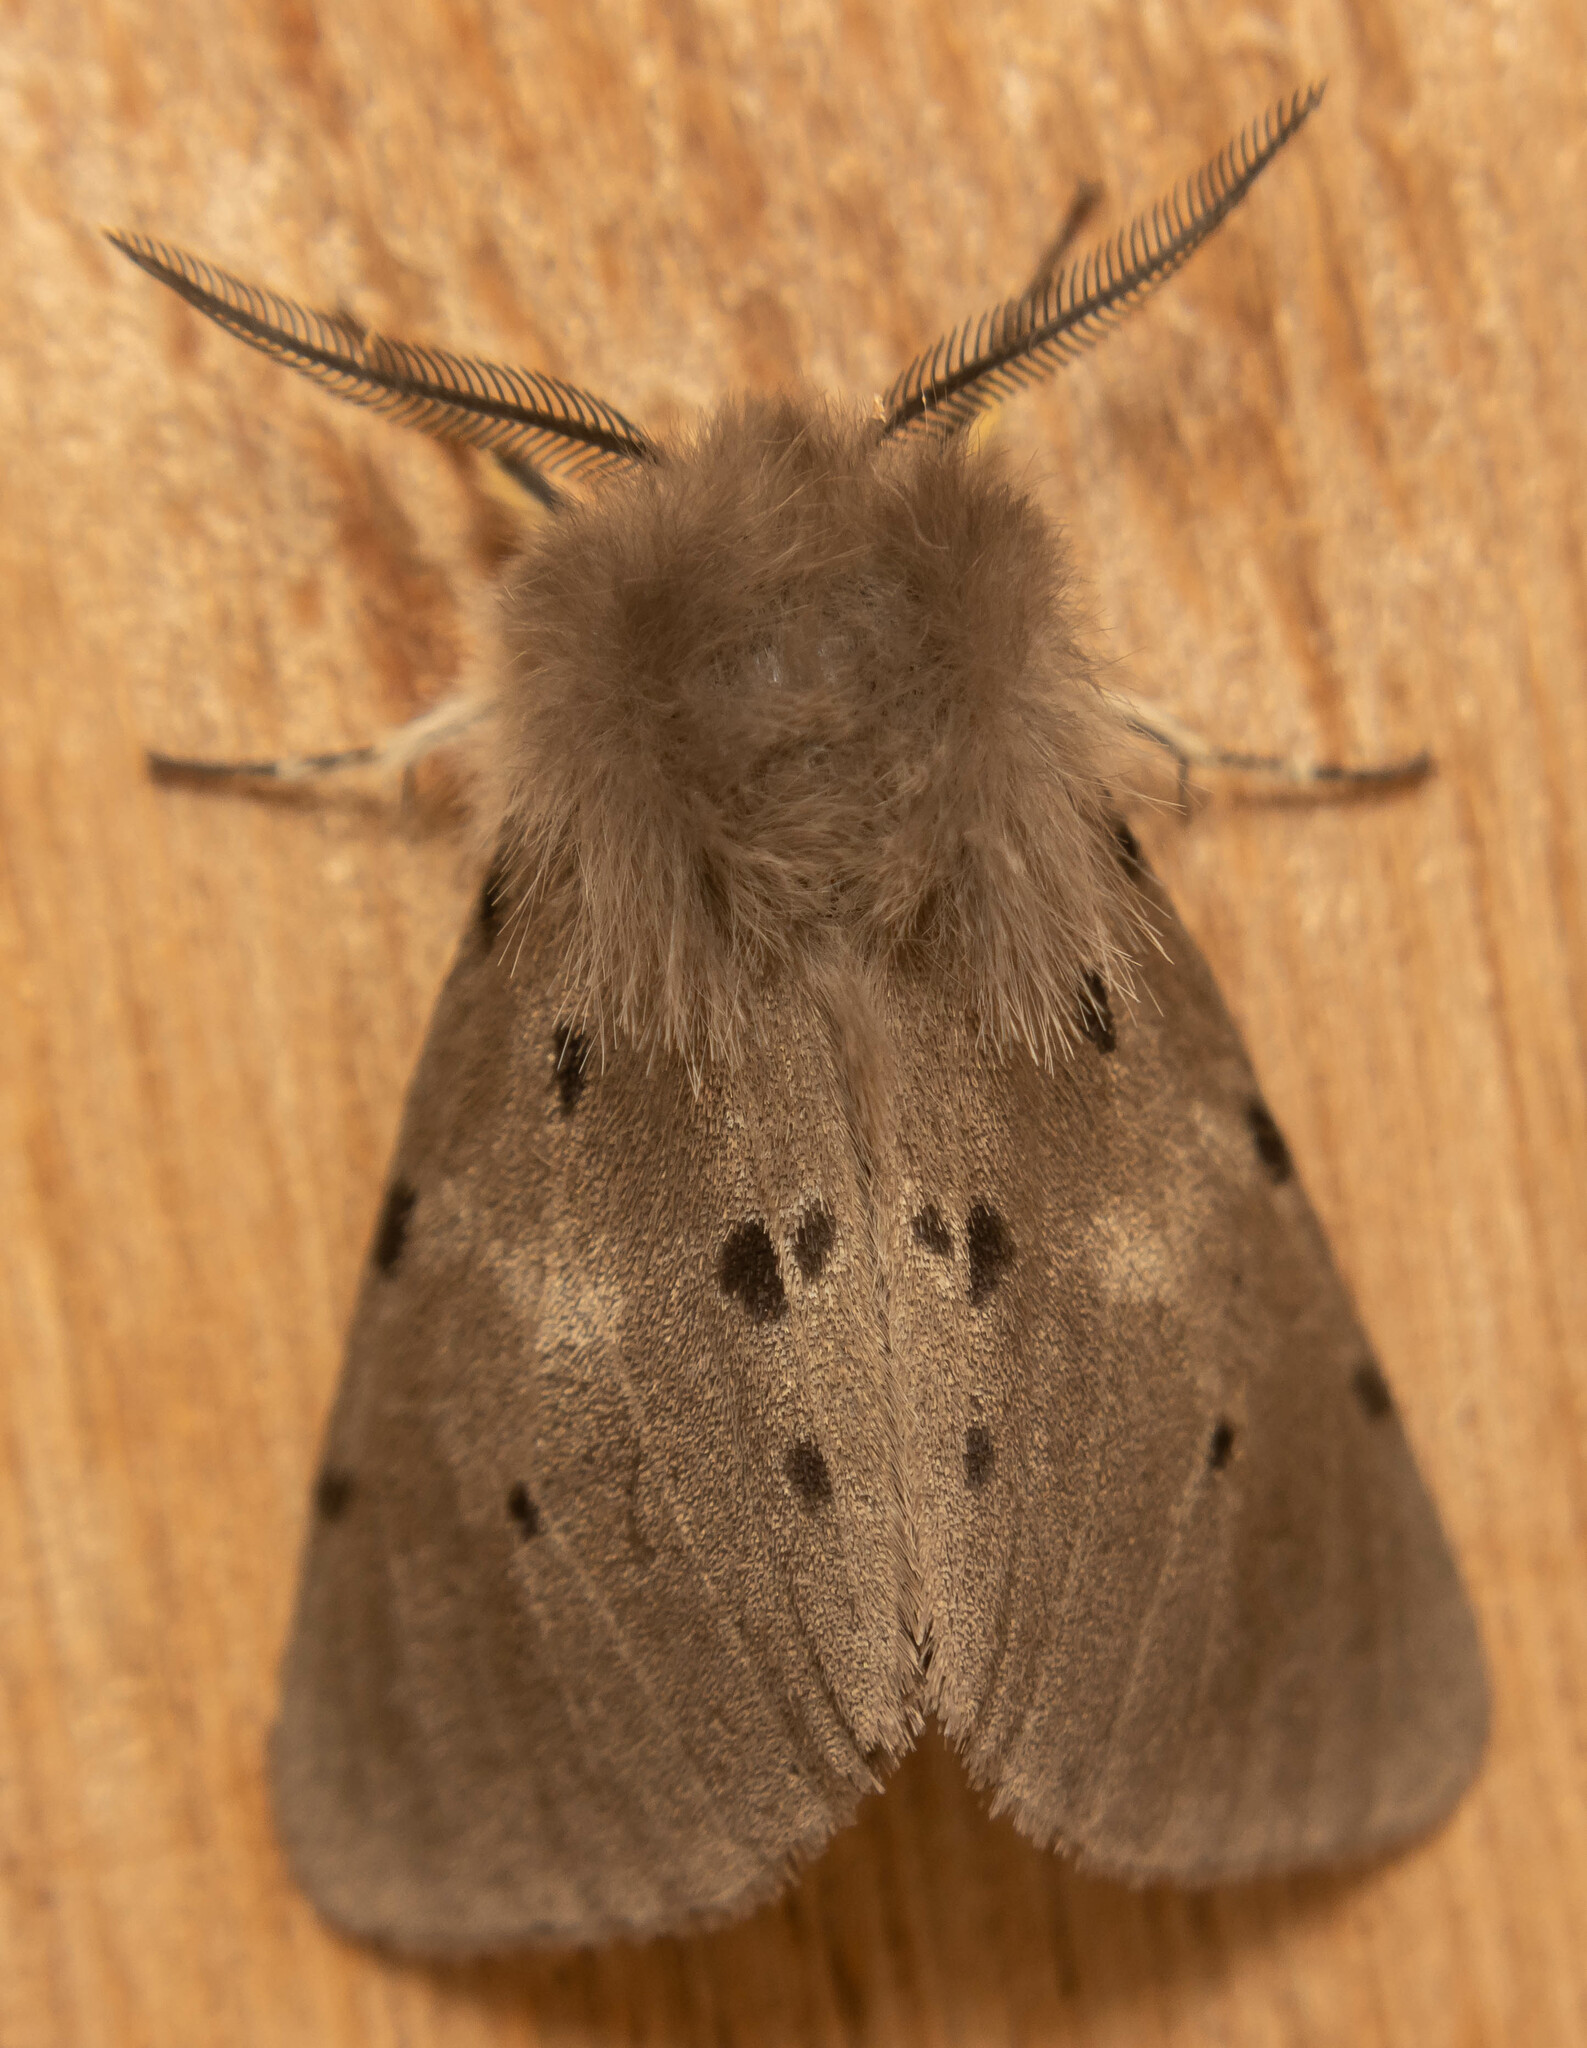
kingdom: Animalia
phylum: Arthropoda
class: Insecta
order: Lepidoptera
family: Erebidae
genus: Diaphora
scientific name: Diaphora mendica
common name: Muslin moth
